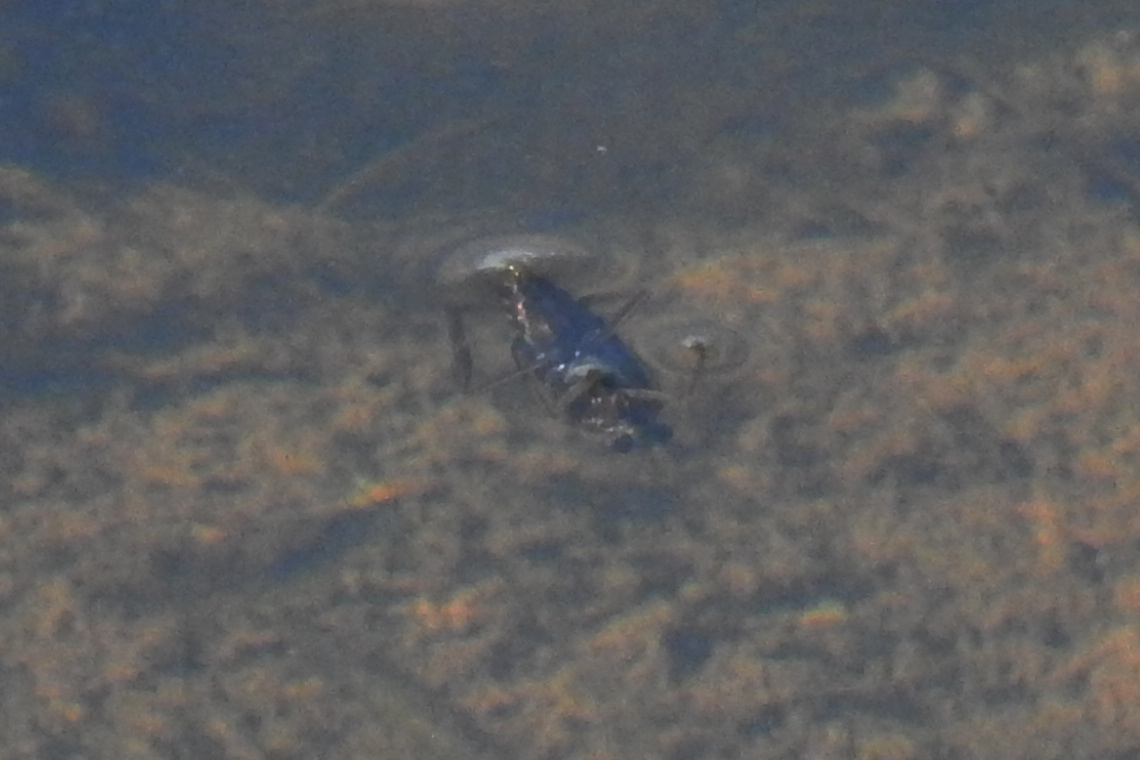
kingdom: Animalia
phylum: Arthropoda
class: Insecta
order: Hemiptera
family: Notonectidae
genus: Notonecta
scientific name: Notonecta
